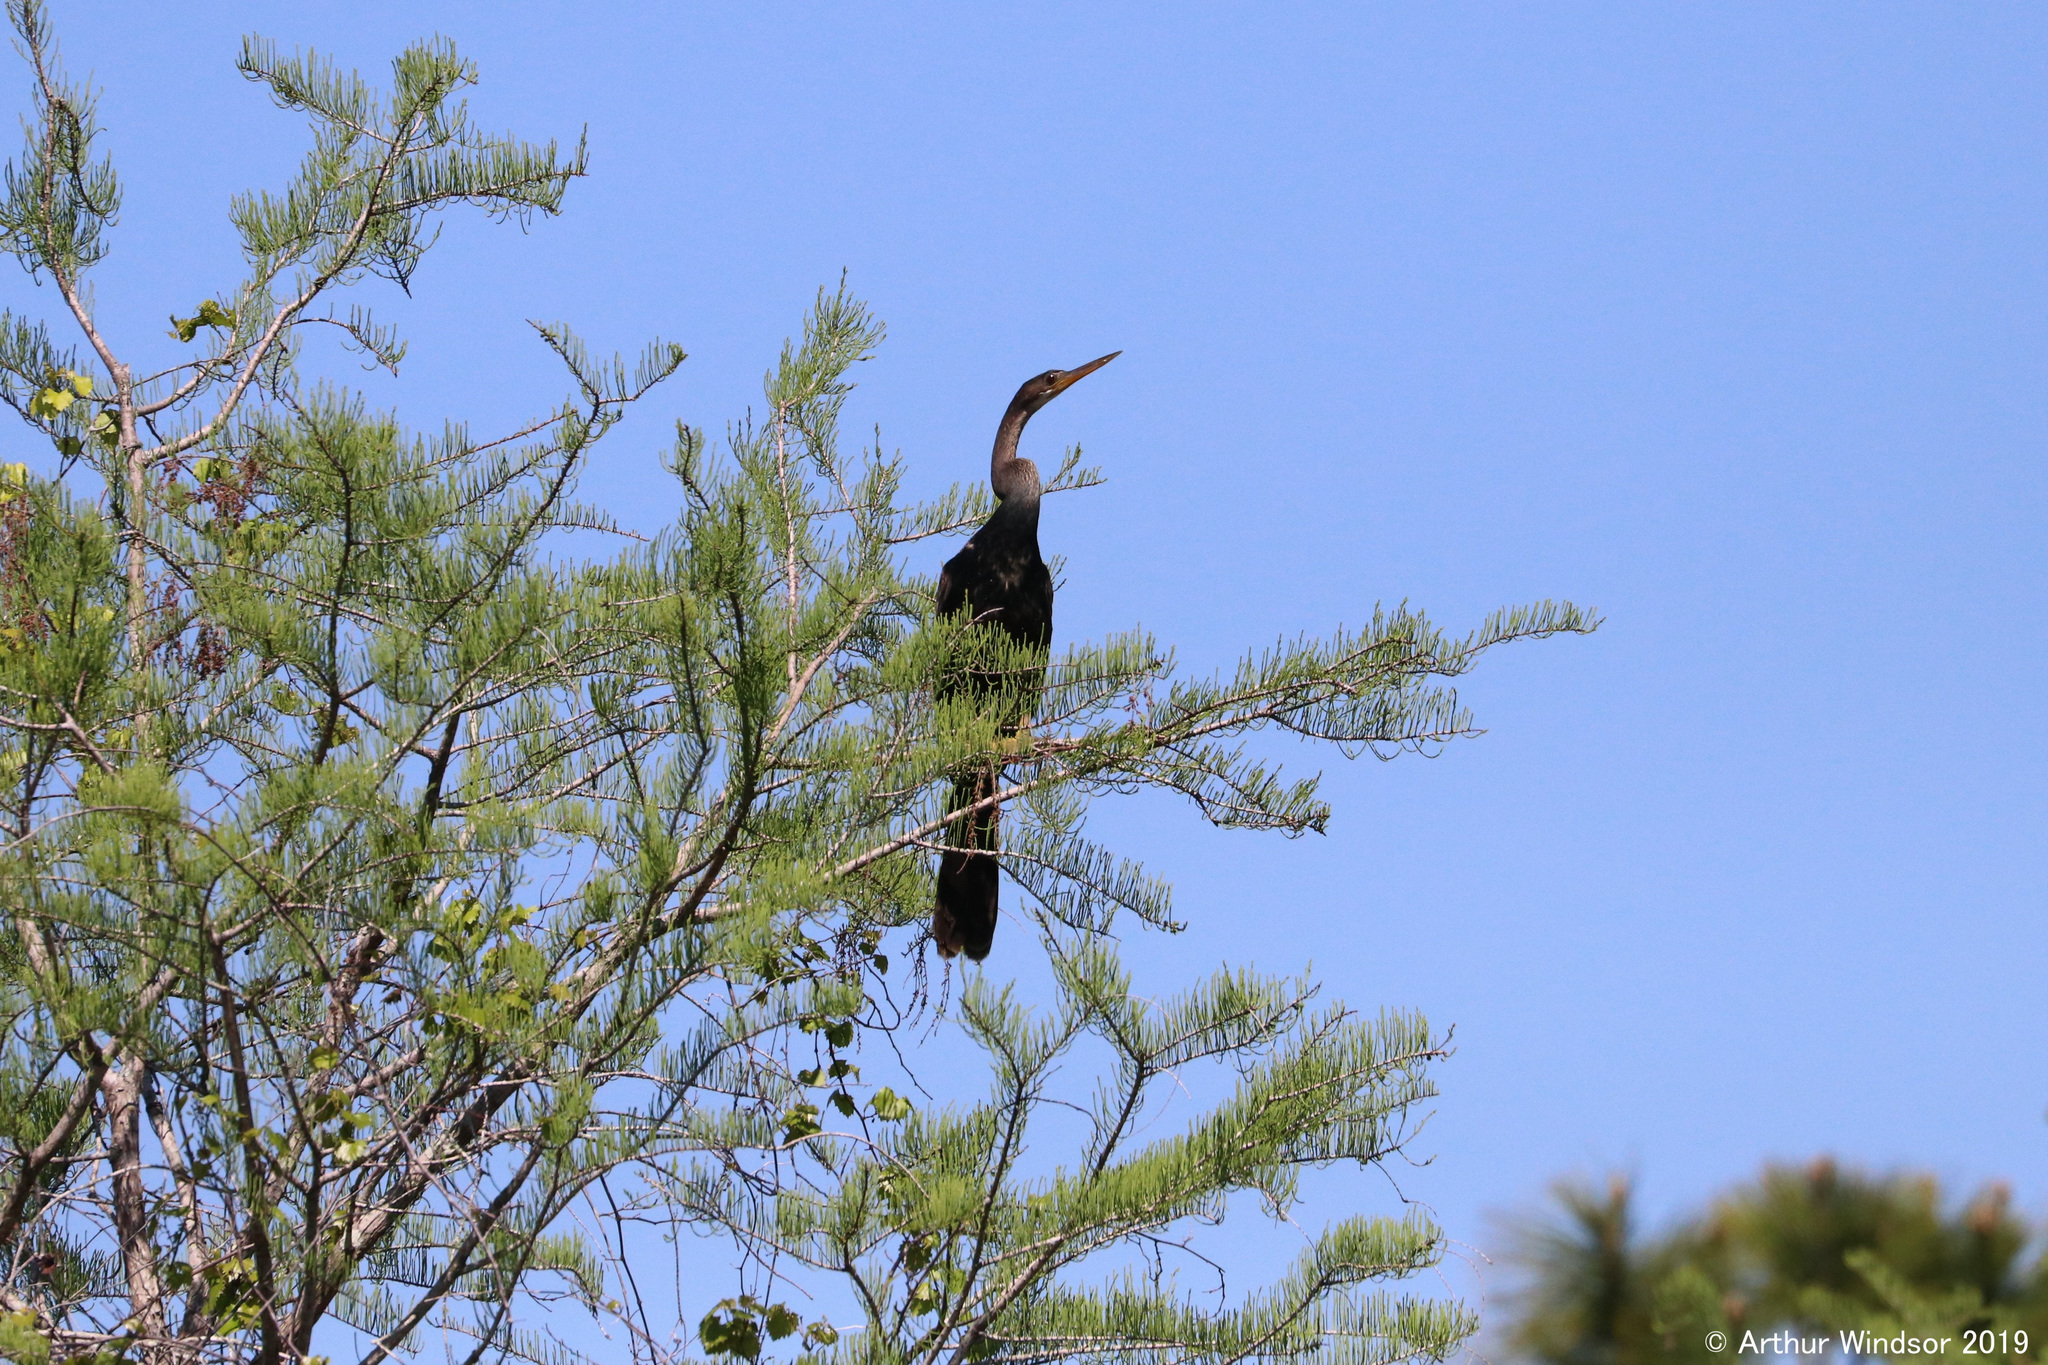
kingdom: Animalia
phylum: Chordata
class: Aves
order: Suliformes
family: Anhingidae
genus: Anhinga
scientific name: Anhinga anhinga
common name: Anhinga
